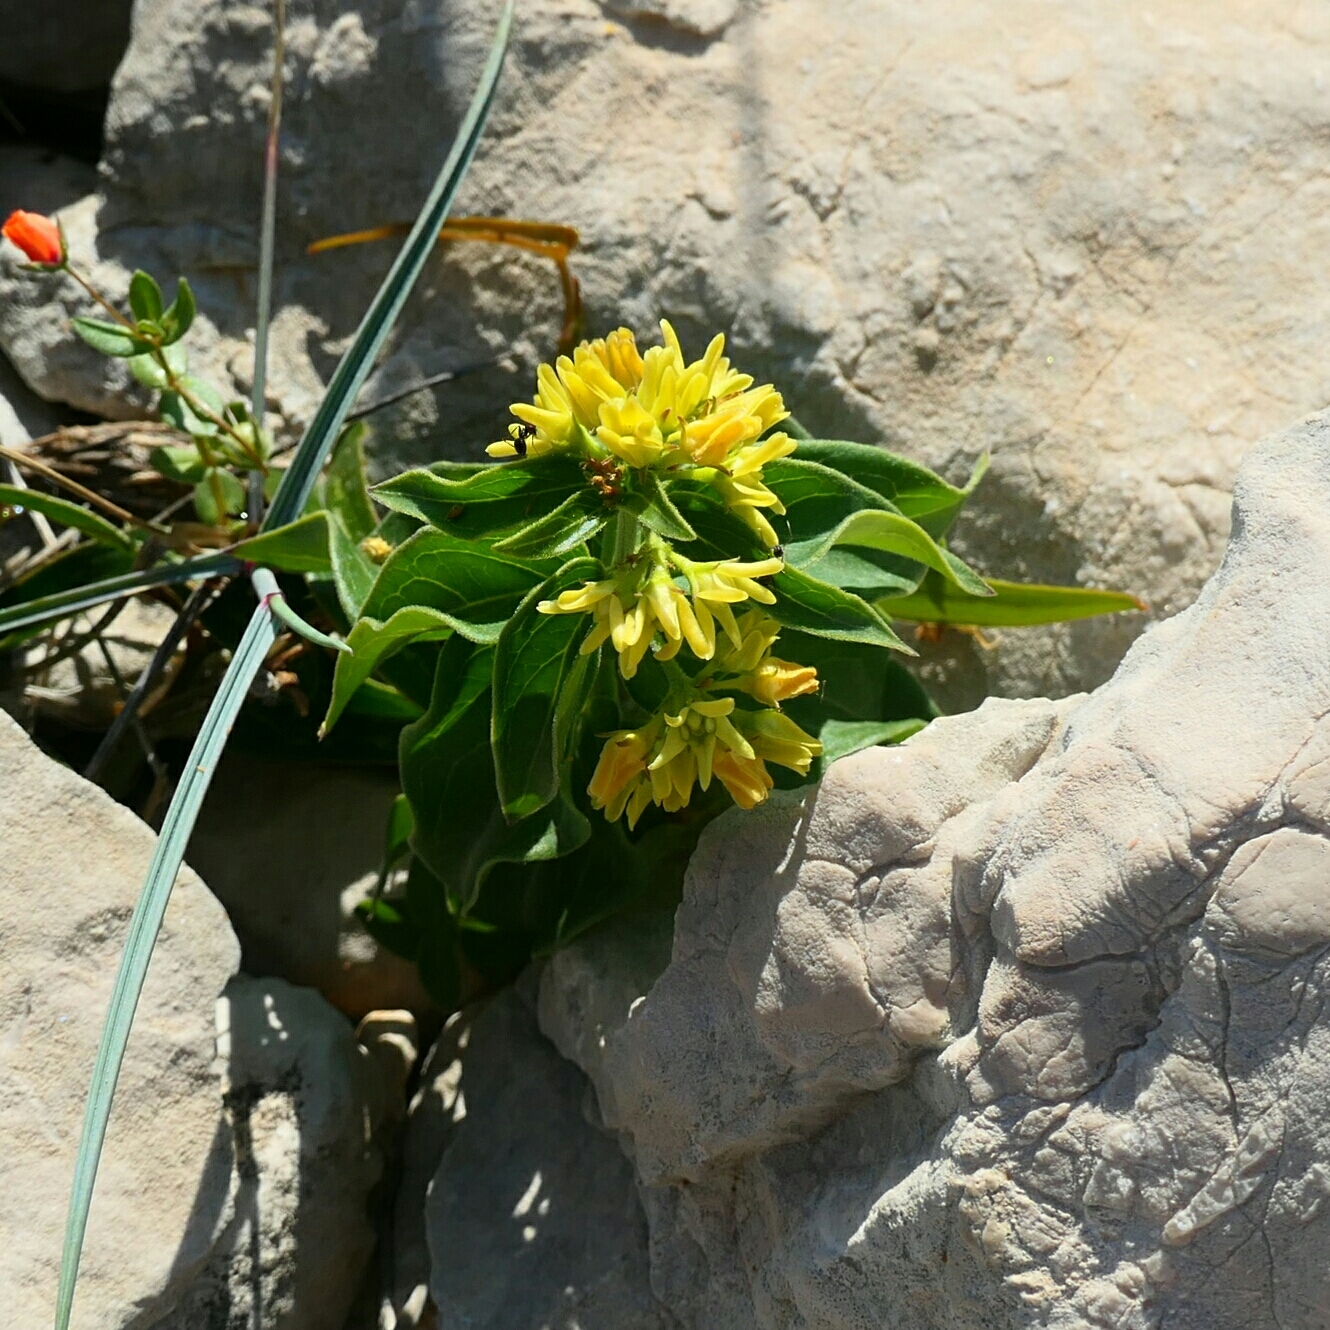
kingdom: Plantae
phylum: Tracheophyta
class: Magnoliopsida
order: Gentianales
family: Apocynaceae
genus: Vincetoxicum
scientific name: Vincetoxicum hirundinaria
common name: White swallowwort
